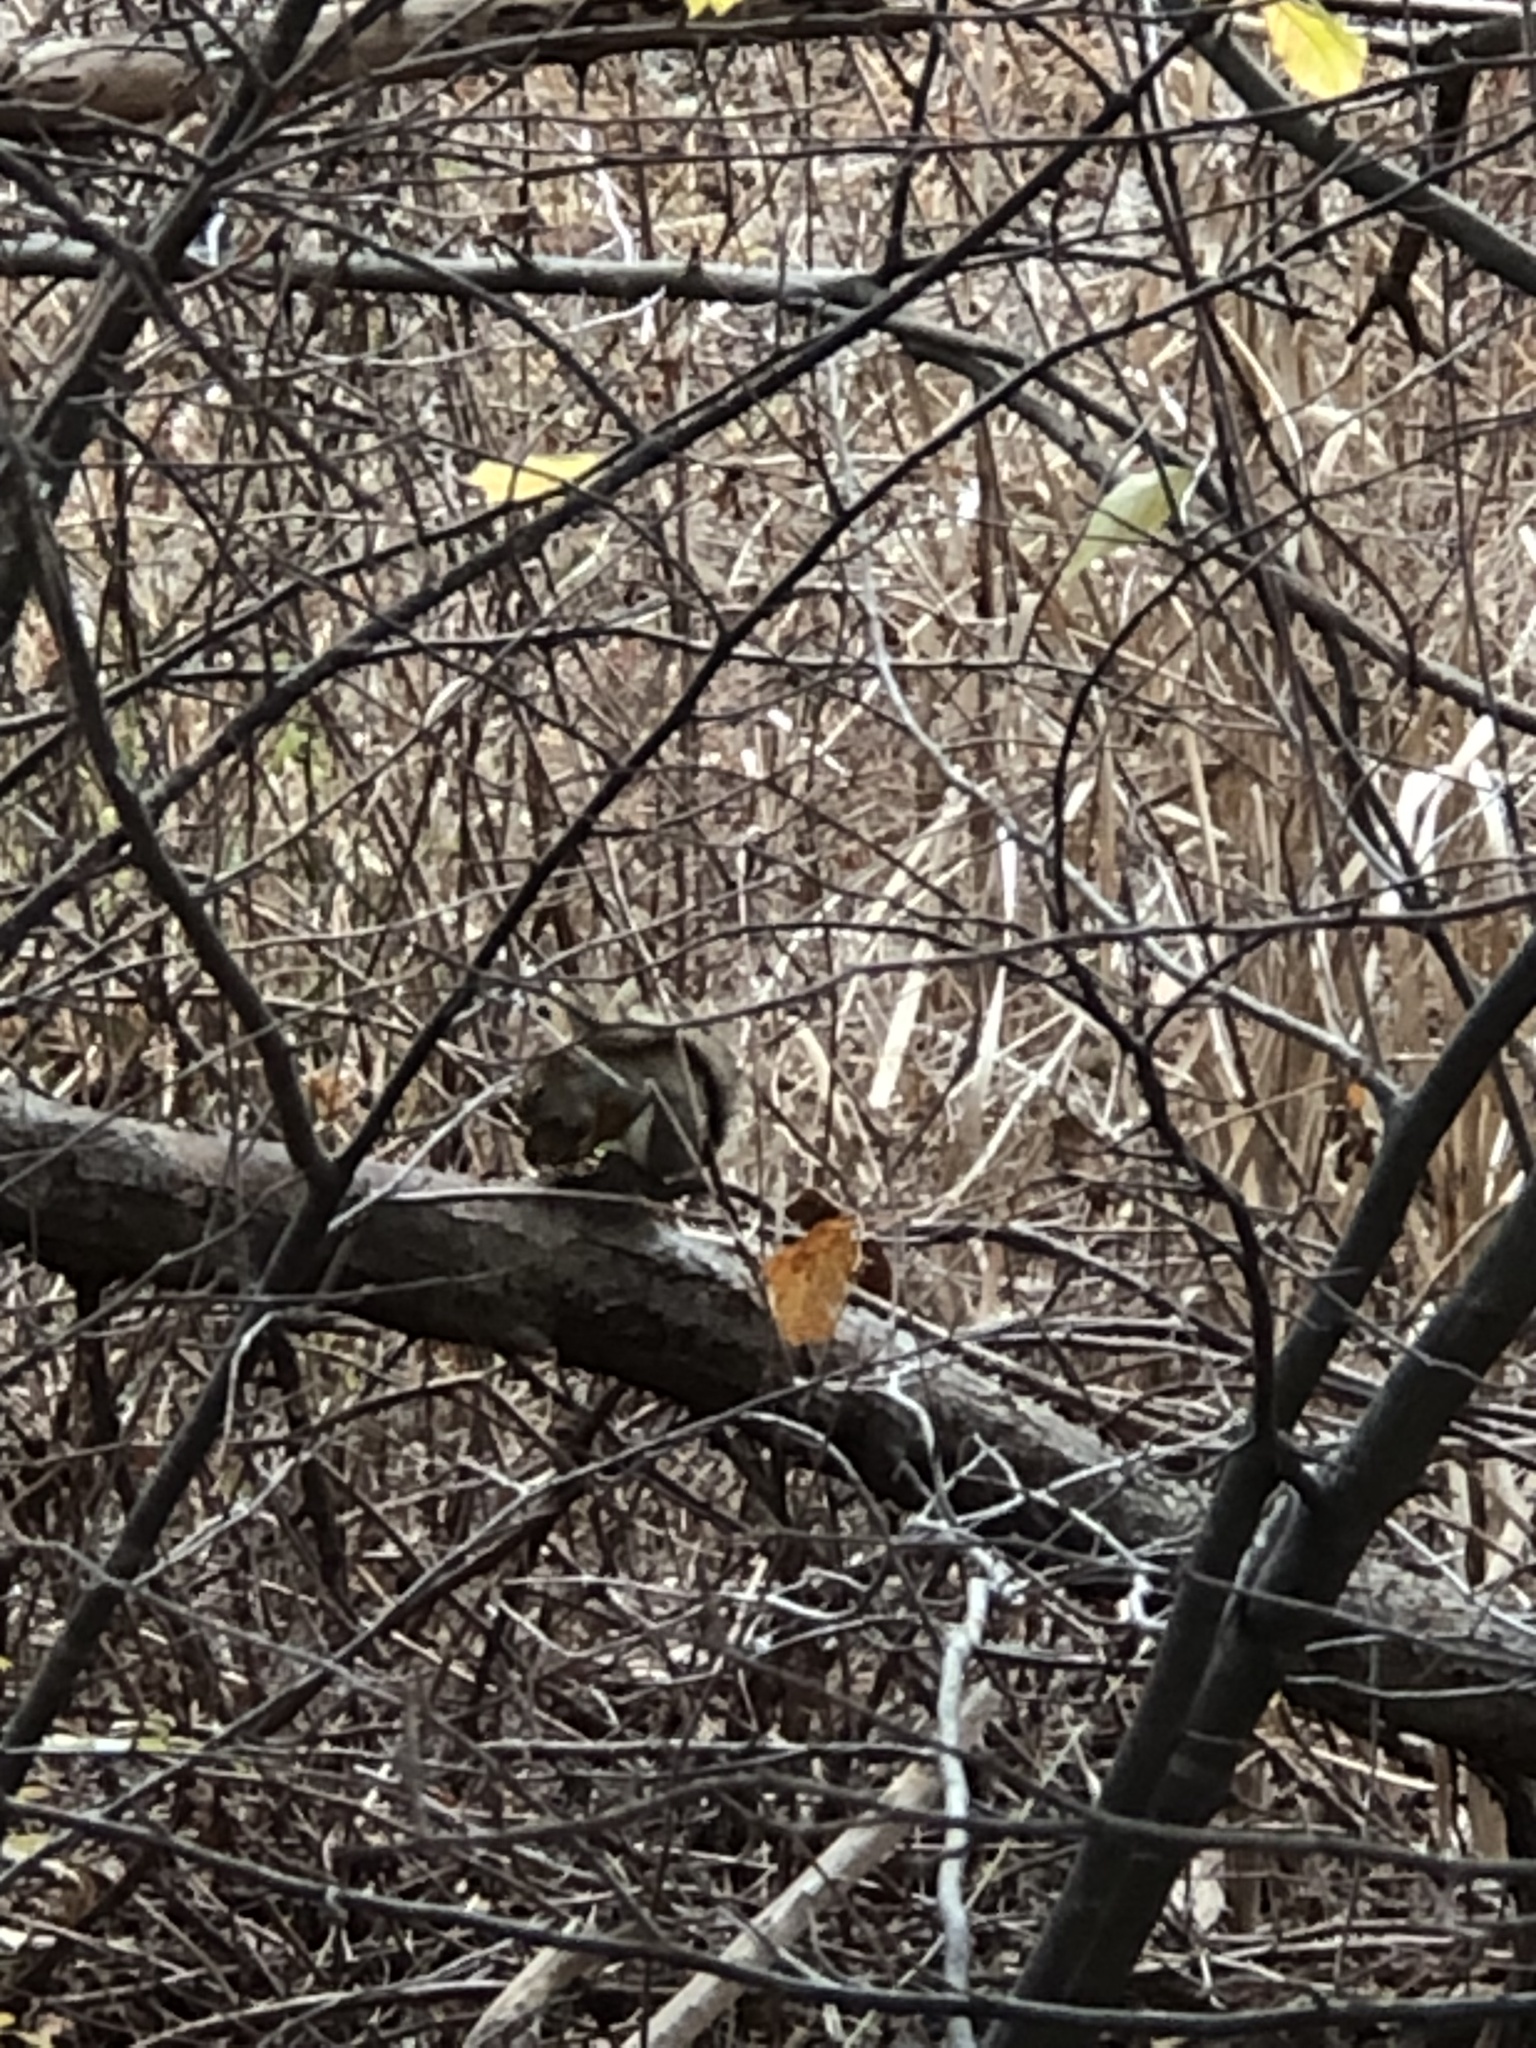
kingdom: Animalia
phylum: Chordata
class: Mammalia
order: Rodentia
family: Sciuridae
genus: Tamiasciurus
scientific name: Tamiasciurus hudsonicus
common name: Red squirrel
